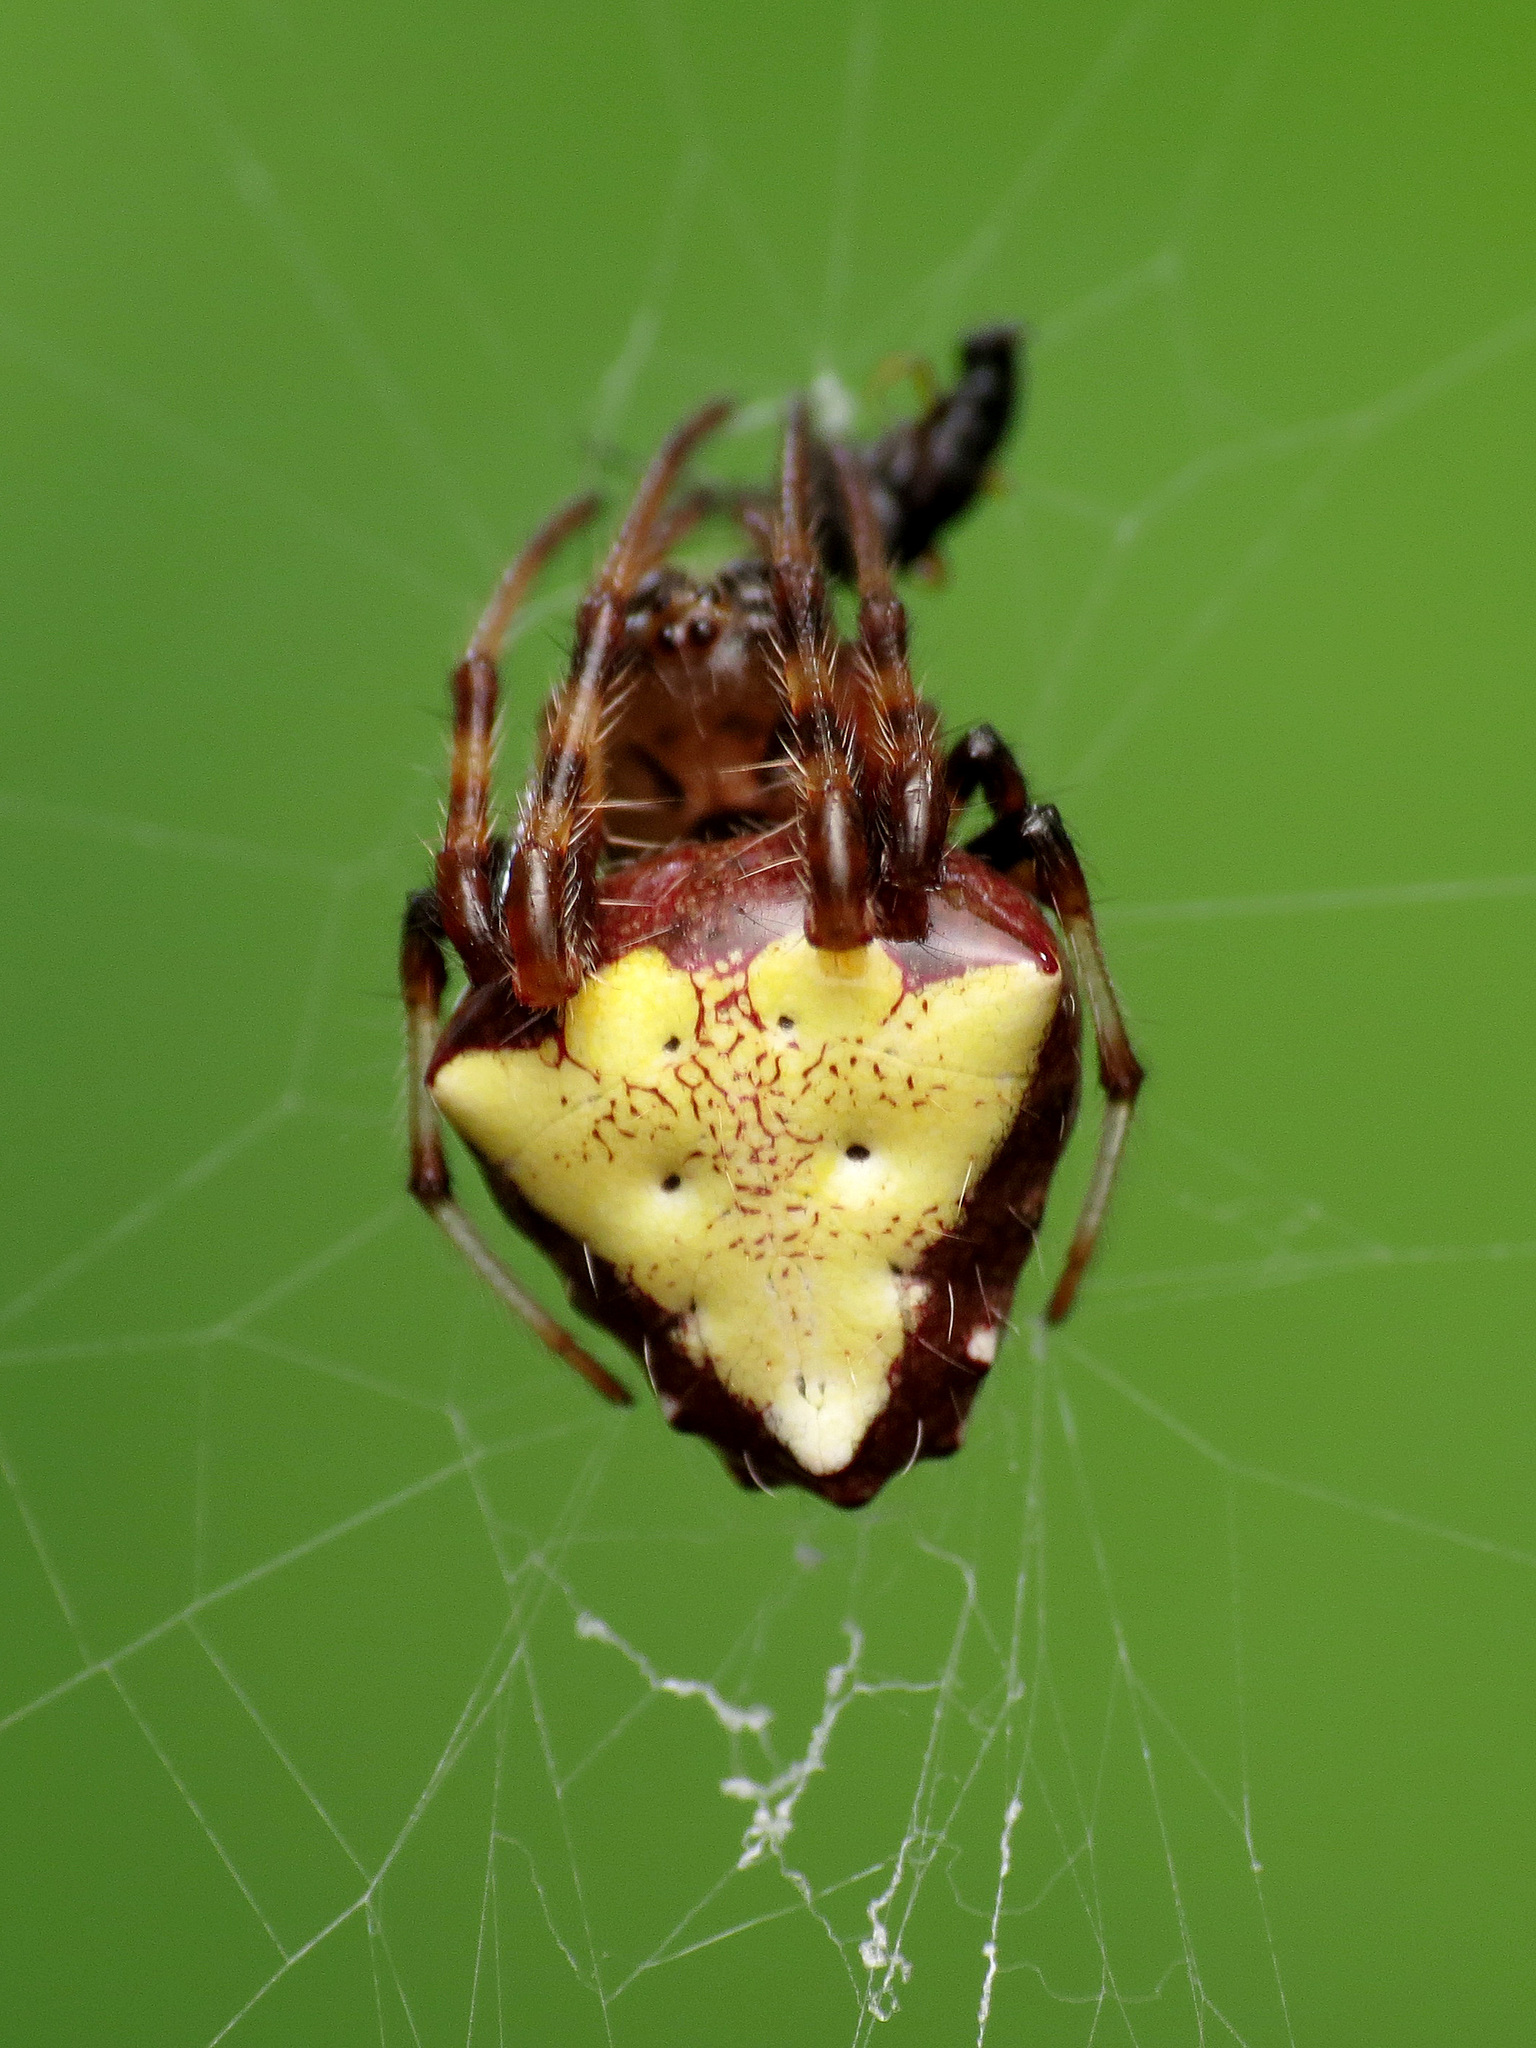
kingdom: Animalia
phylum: Arthropoda
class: Arachnida
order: Araneae
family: Araneidae
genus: Verrucosa
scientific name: Verrucosa arenata
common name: Orb weavers
